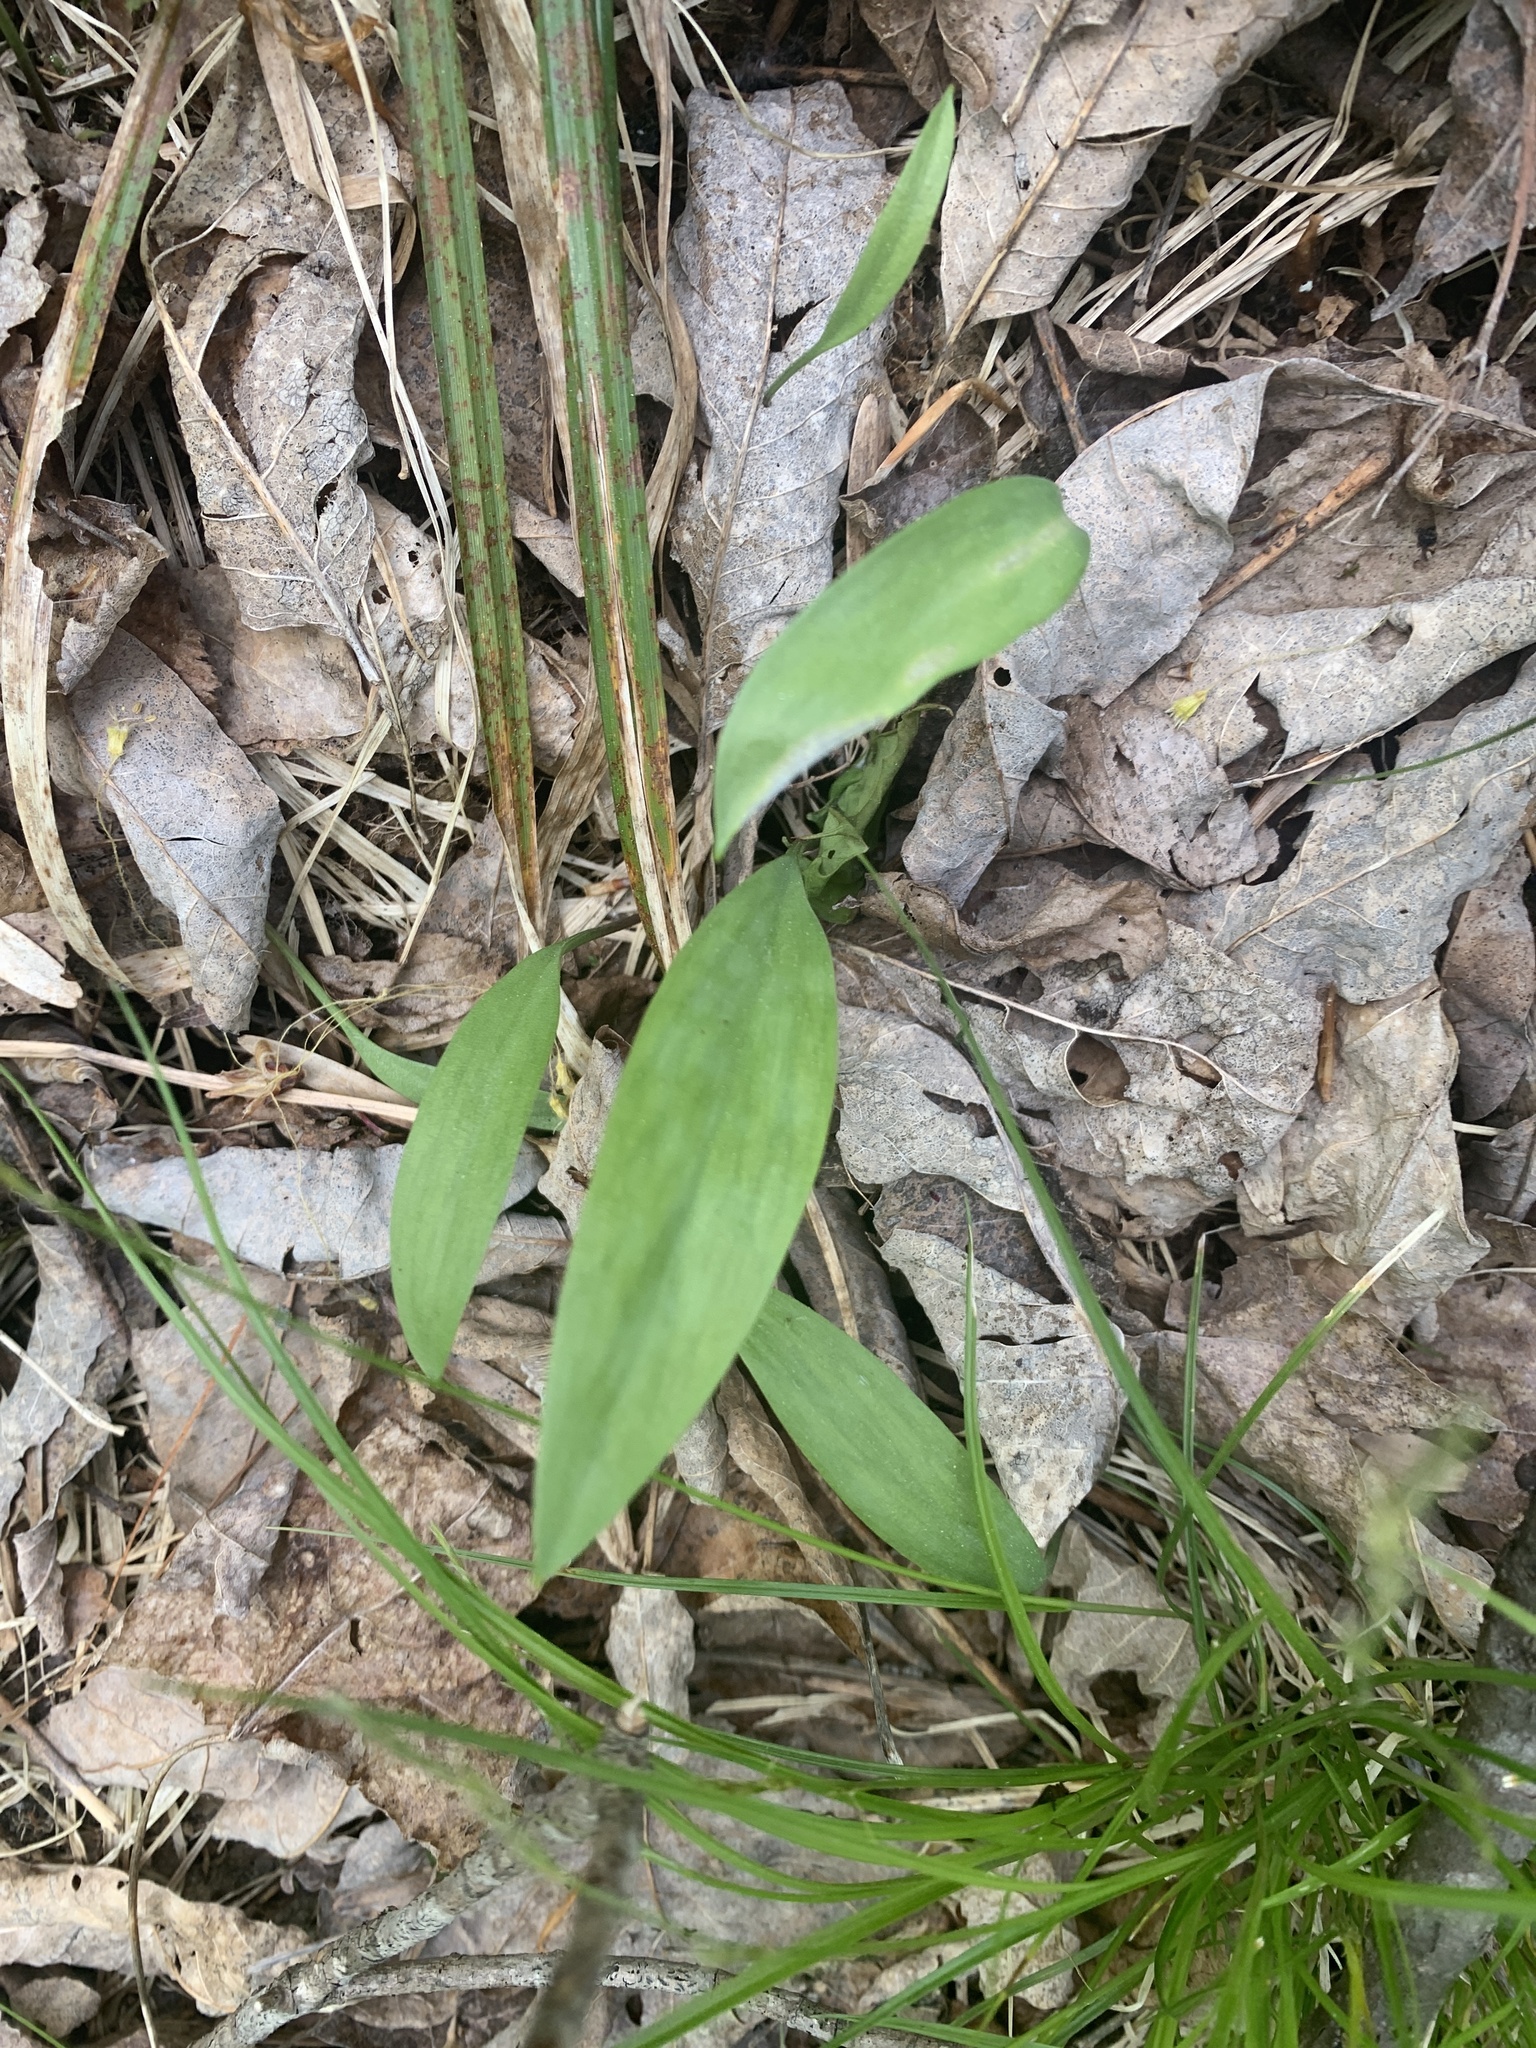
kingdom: Plantae
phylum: Tracheophyta
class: Liliopsida
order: Liliales
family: Liliaceae
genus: Erythronium
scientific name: Erythronium americanum
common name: Yellow adder's-tongue
